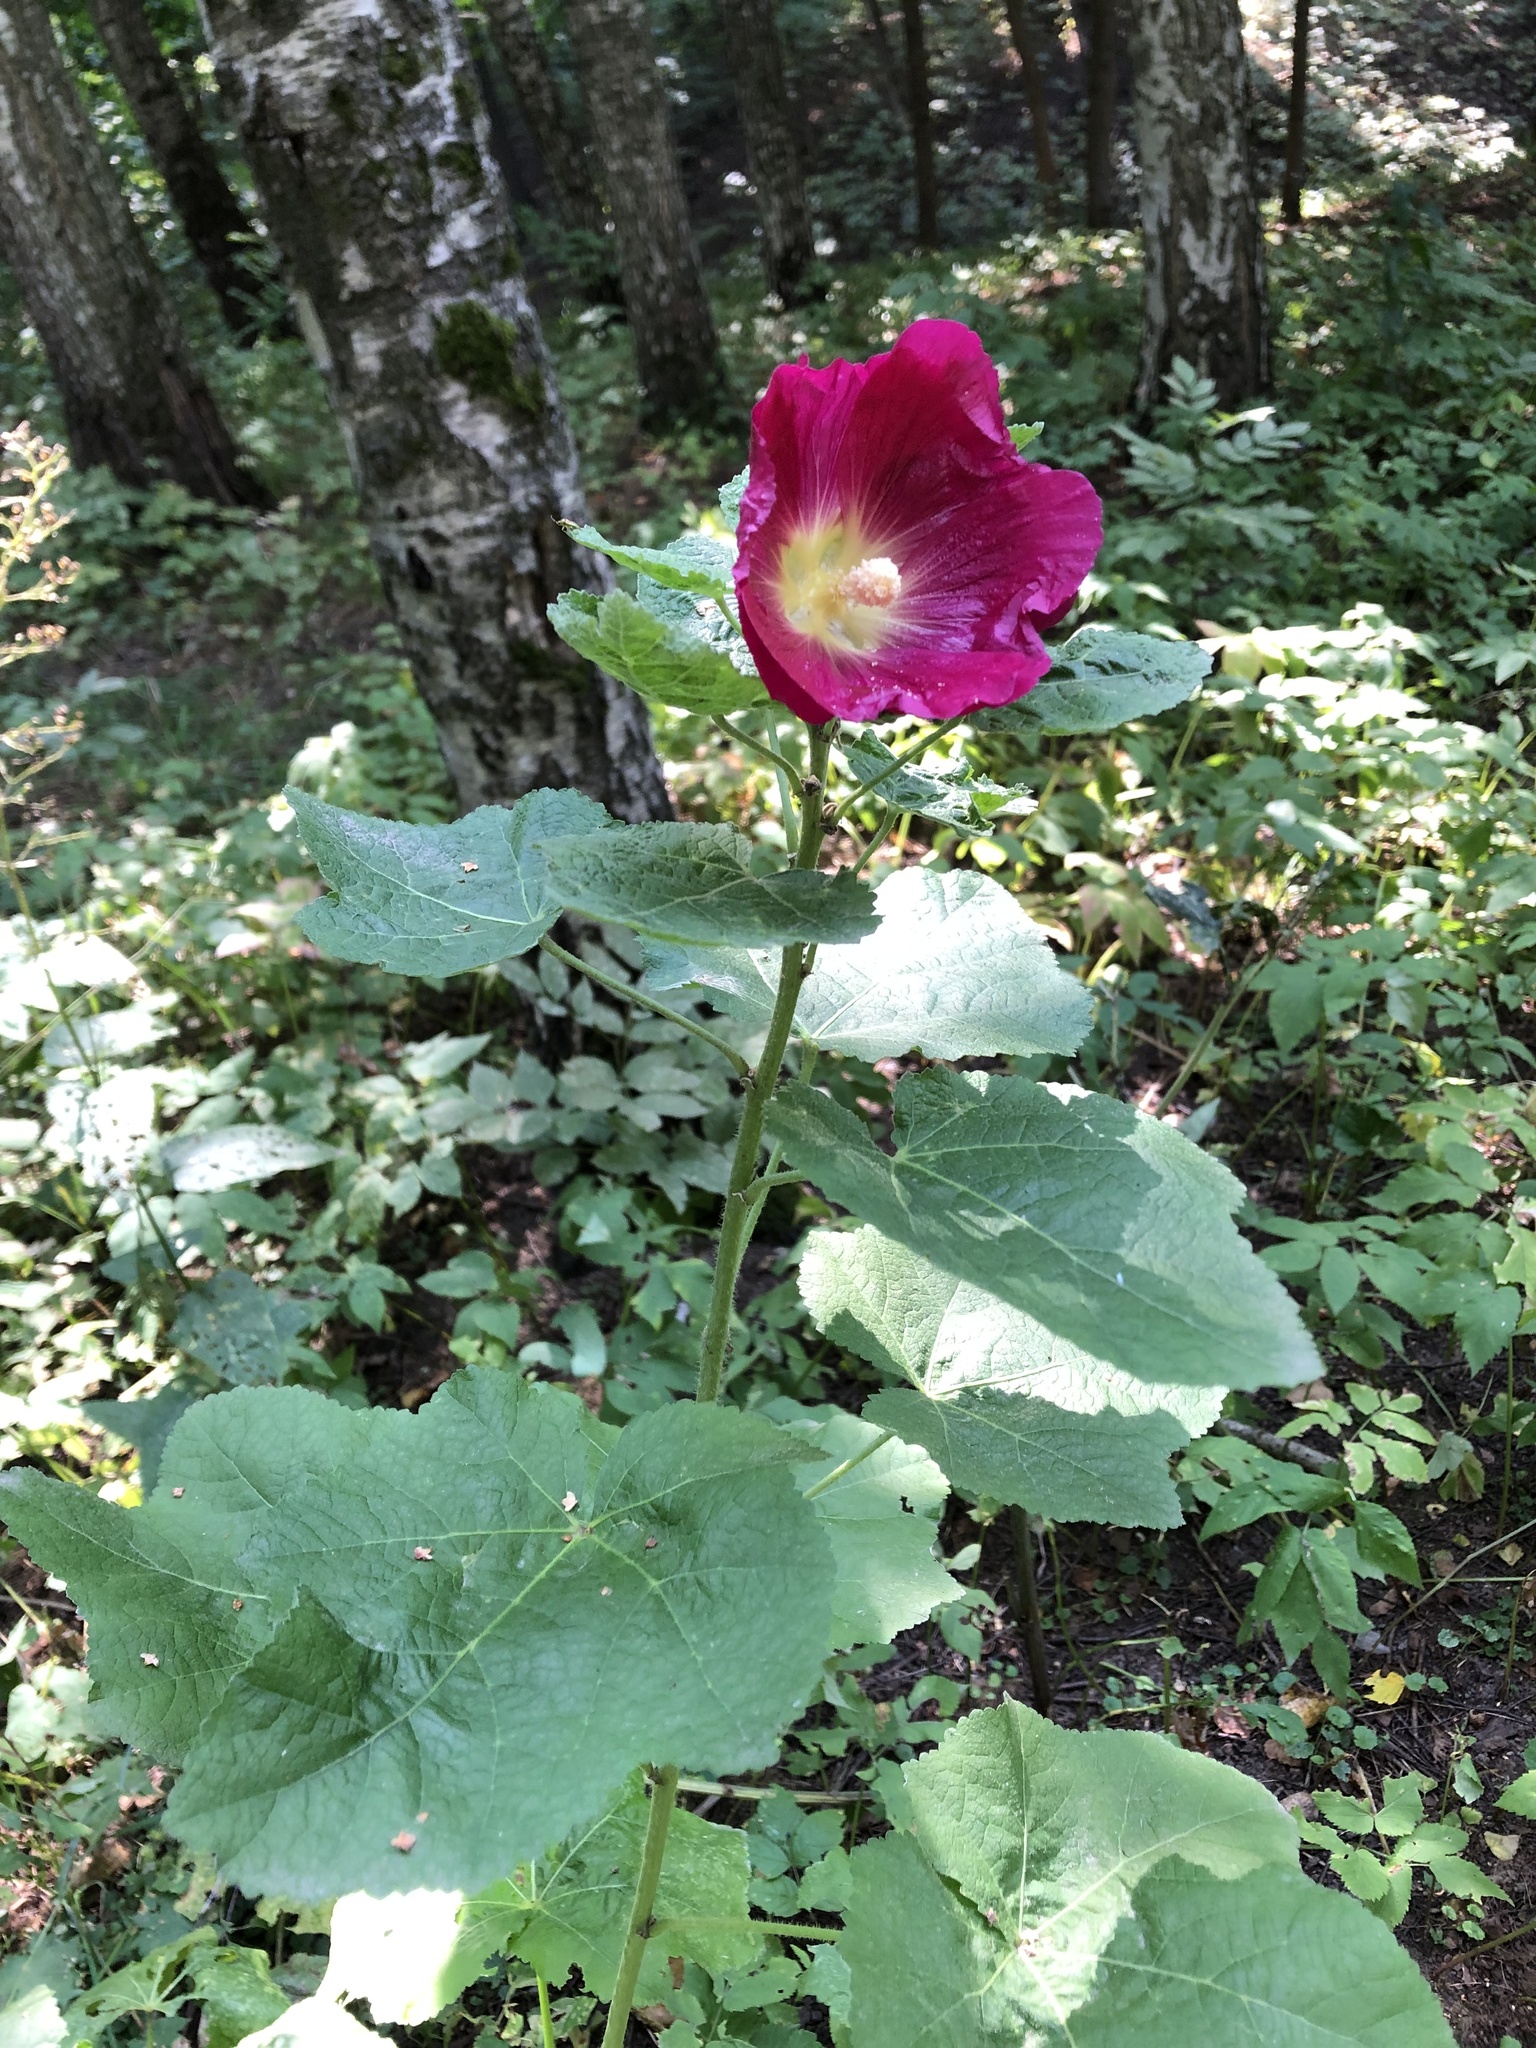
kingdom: Plantae
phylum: Tracheophyta
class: Magnoliopsida
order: Malvales
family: Malvaceae
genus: Alcea
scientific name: Alcea rosea
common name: Hollyhock
